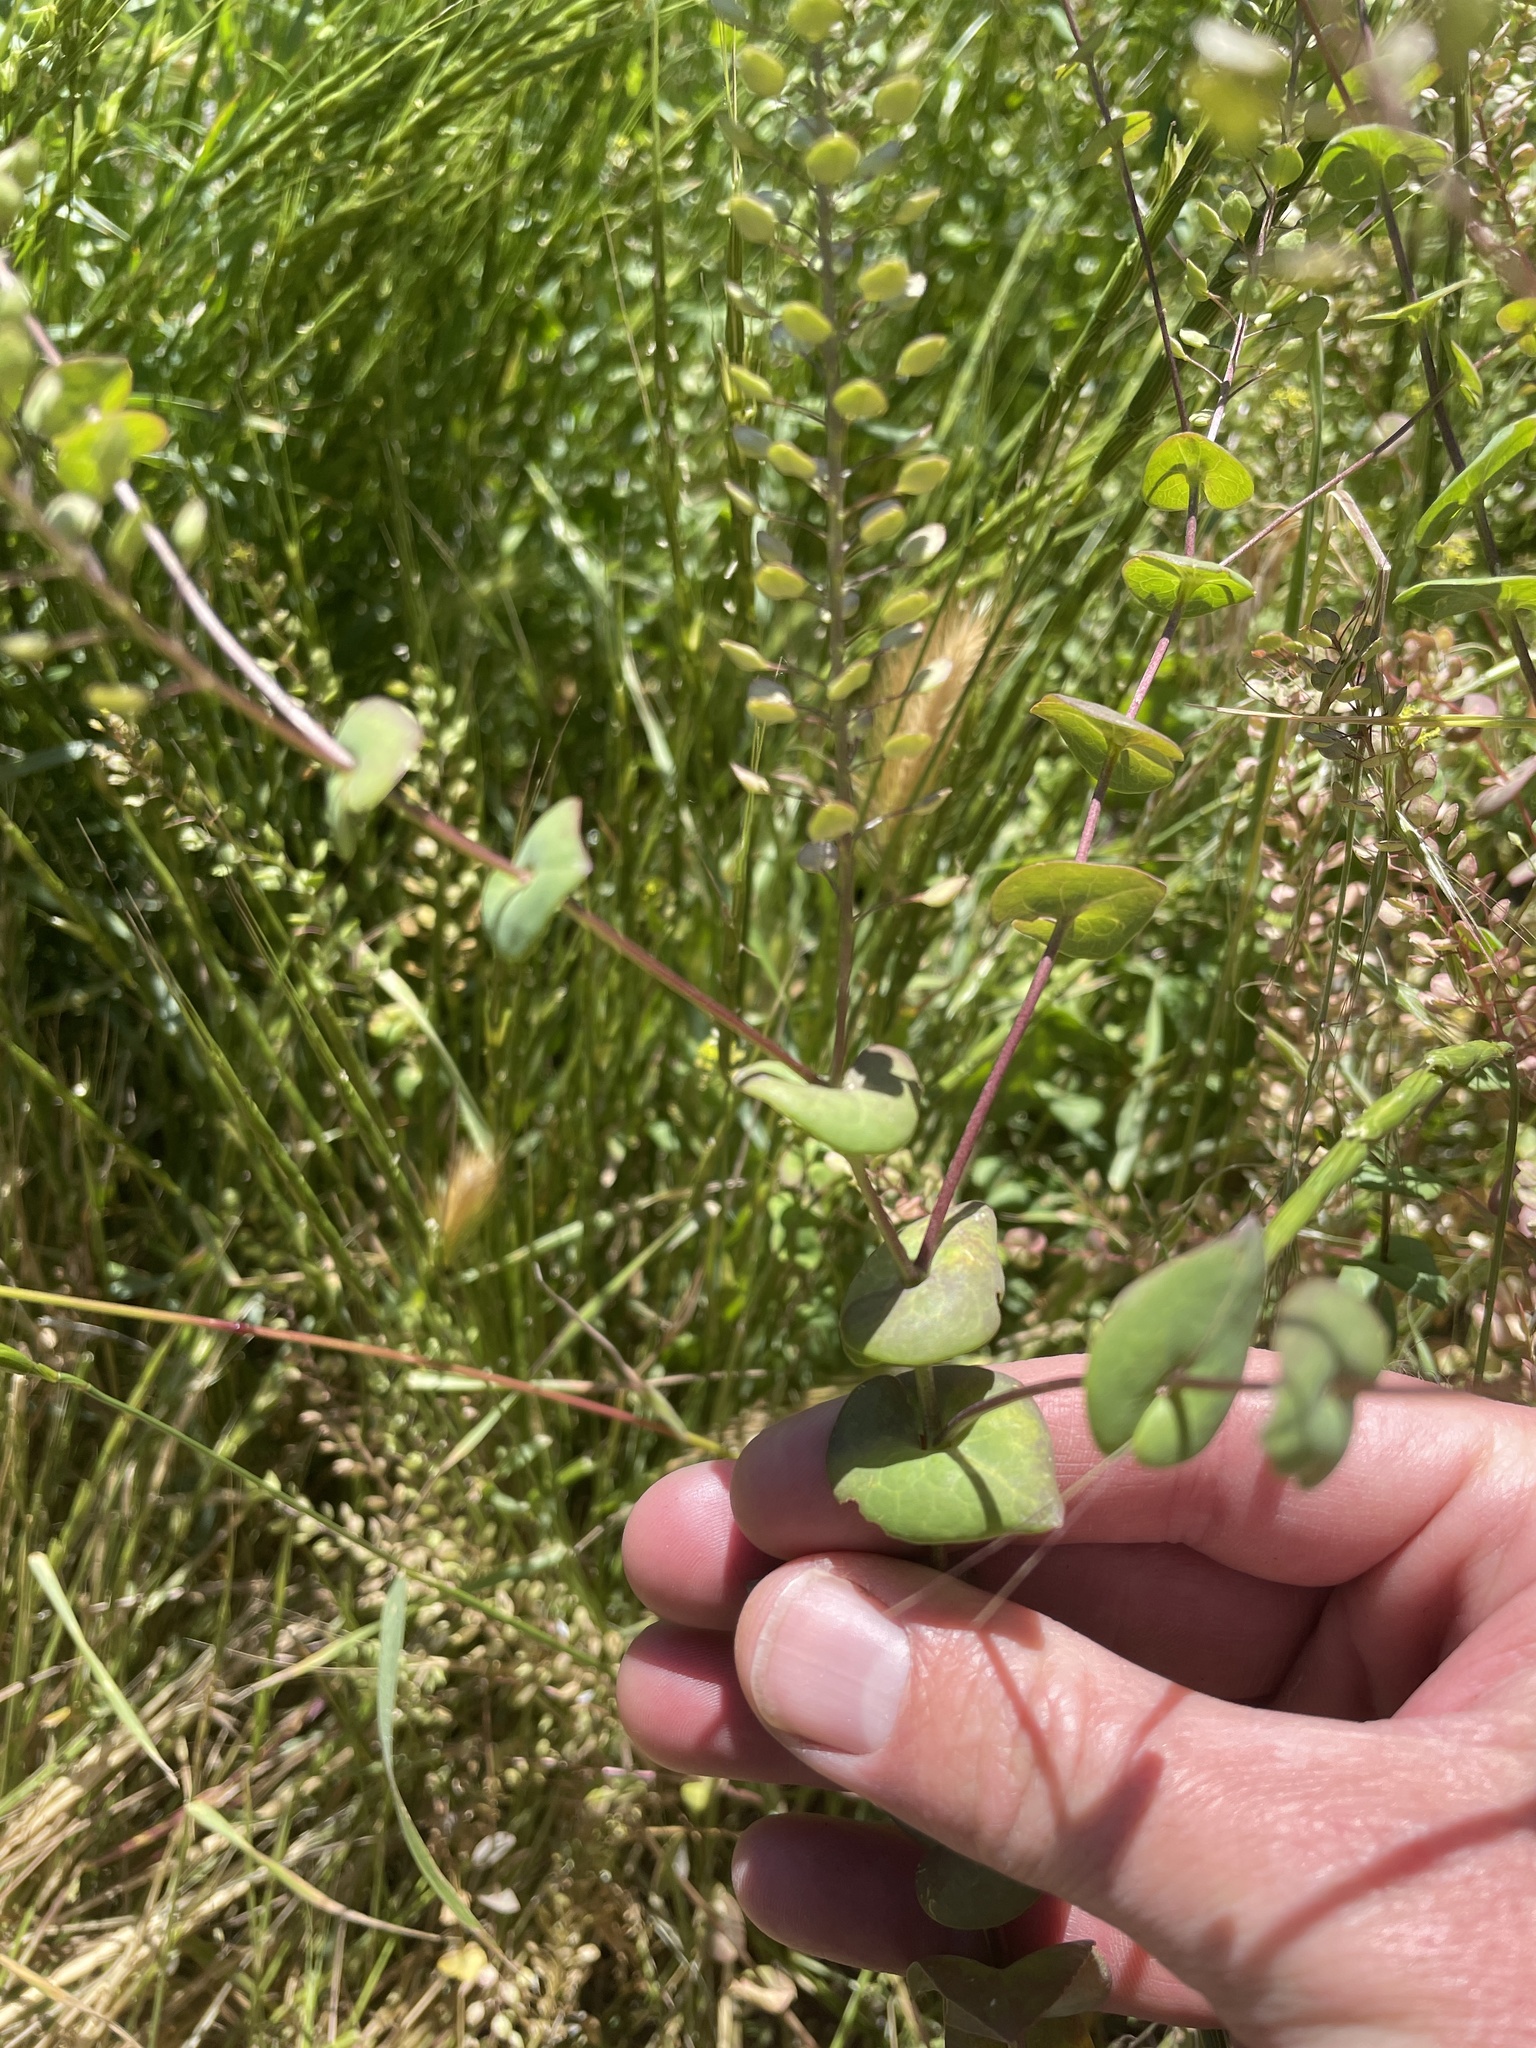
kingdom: Plantae
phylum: Tracheophyta
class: Magnoliopsida
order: Brassicales
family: Brassicaceae
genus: Lepidium
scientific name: Lepidium perfoliatum
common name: Perfoliate pepperwort
